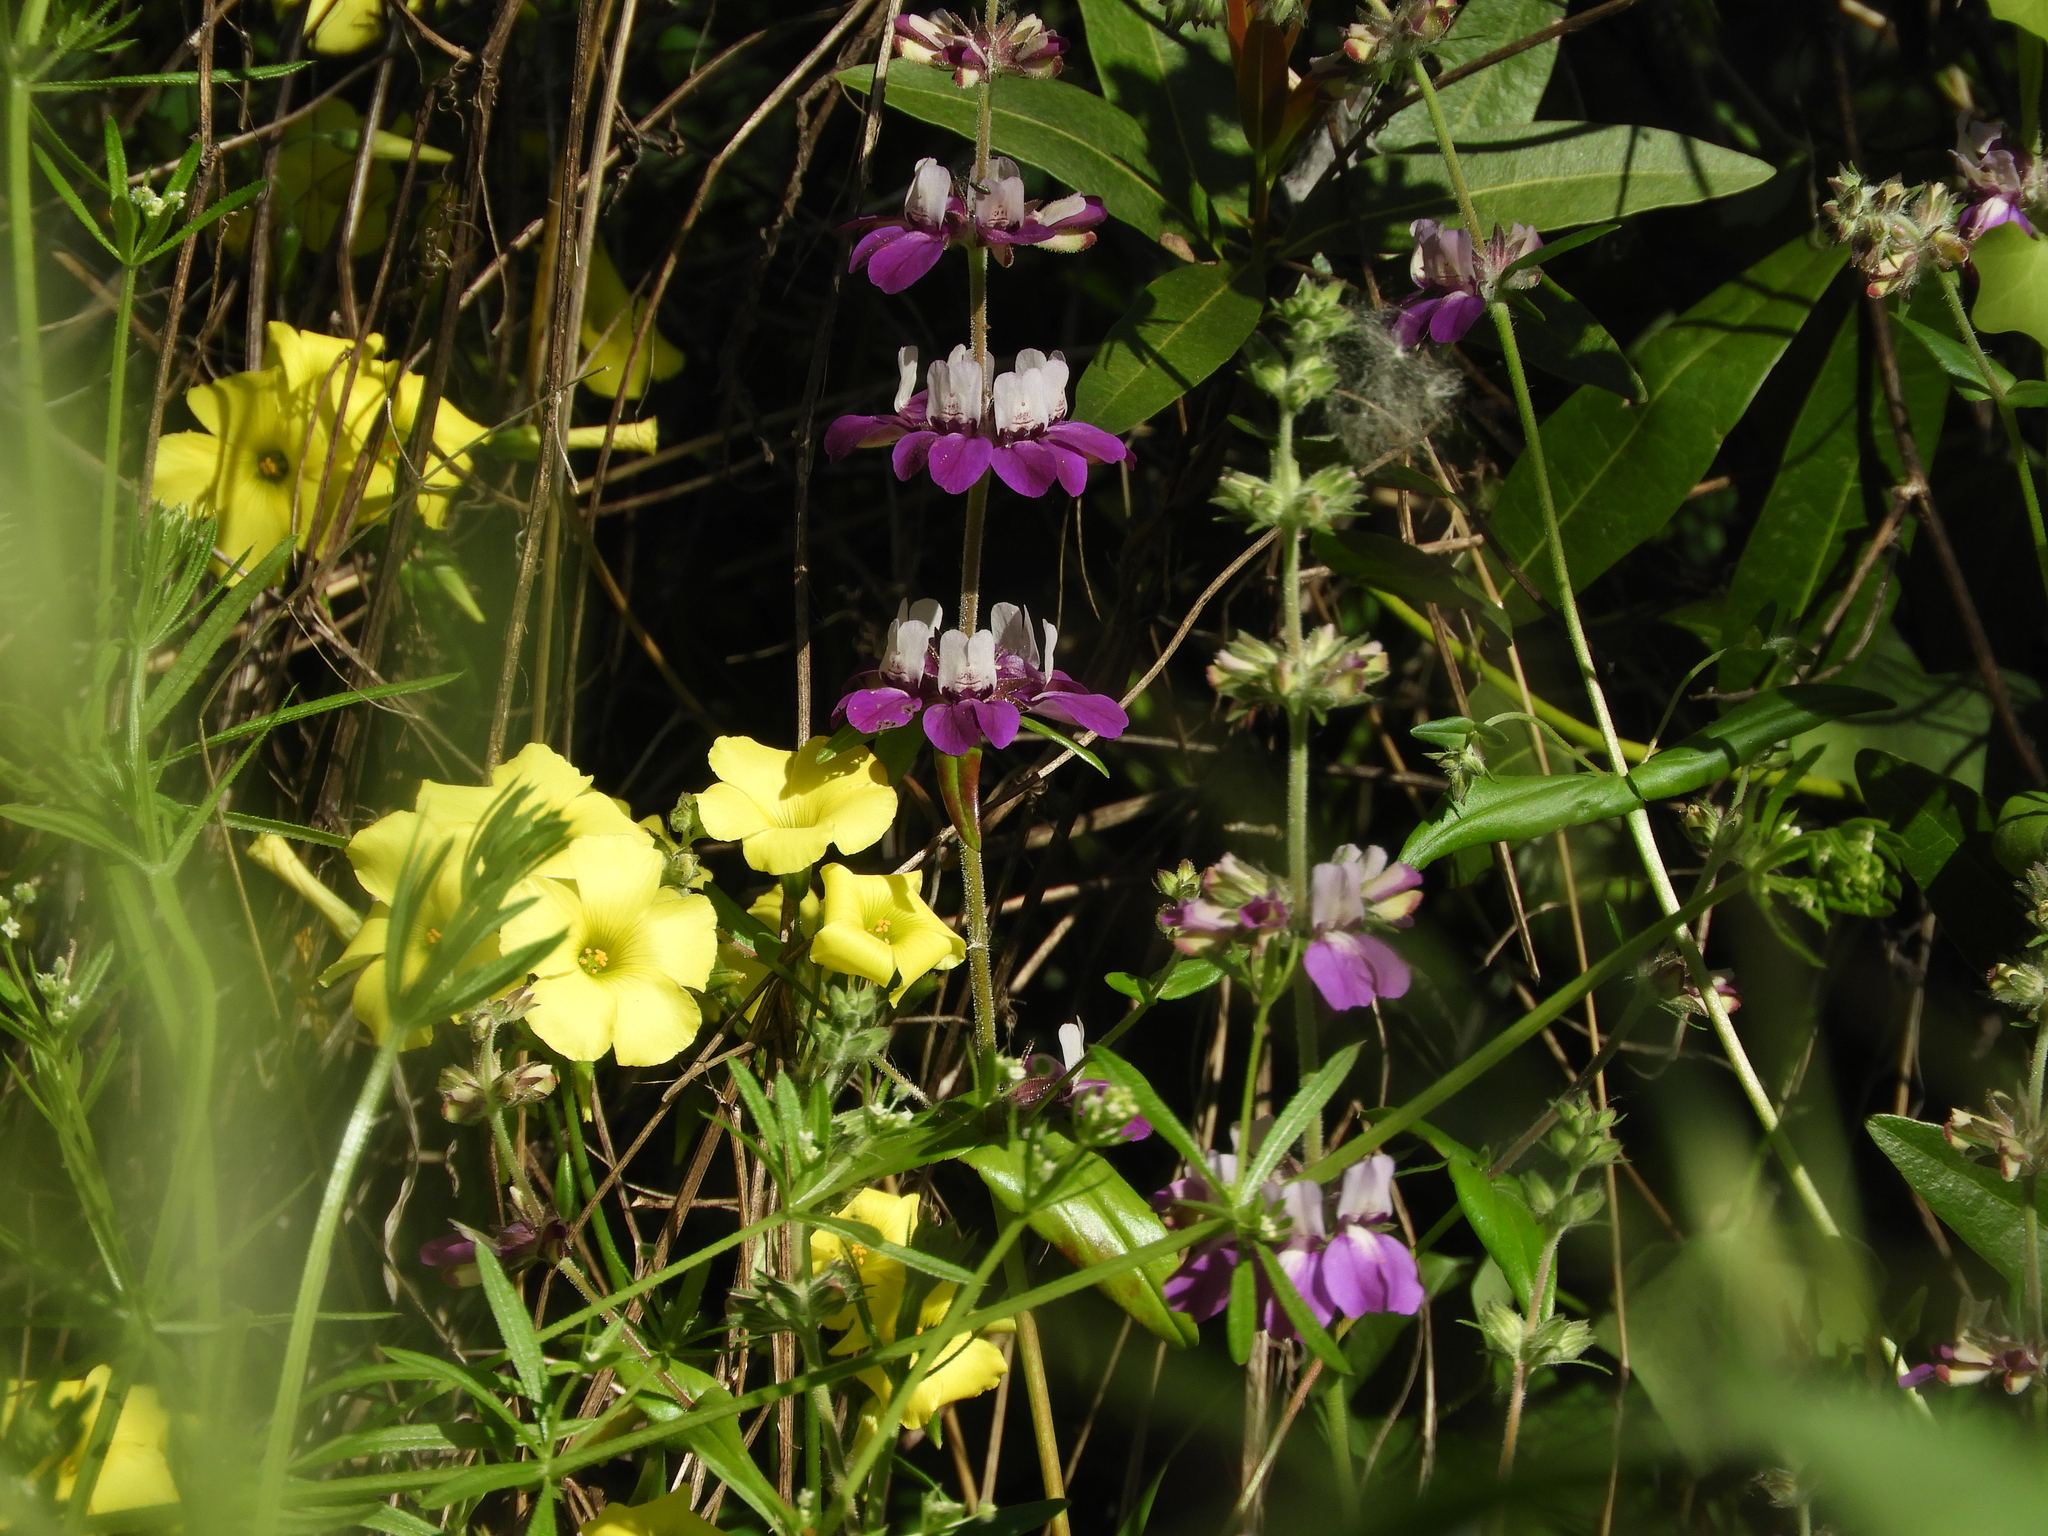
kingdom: Plantae
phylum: Tracheophyta
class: Magnoliopsida
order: Oxalidales
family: Oxalidaceae
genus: Oxalis
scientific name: Oxalis pes-caprae
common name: Bermuda-buttercup
